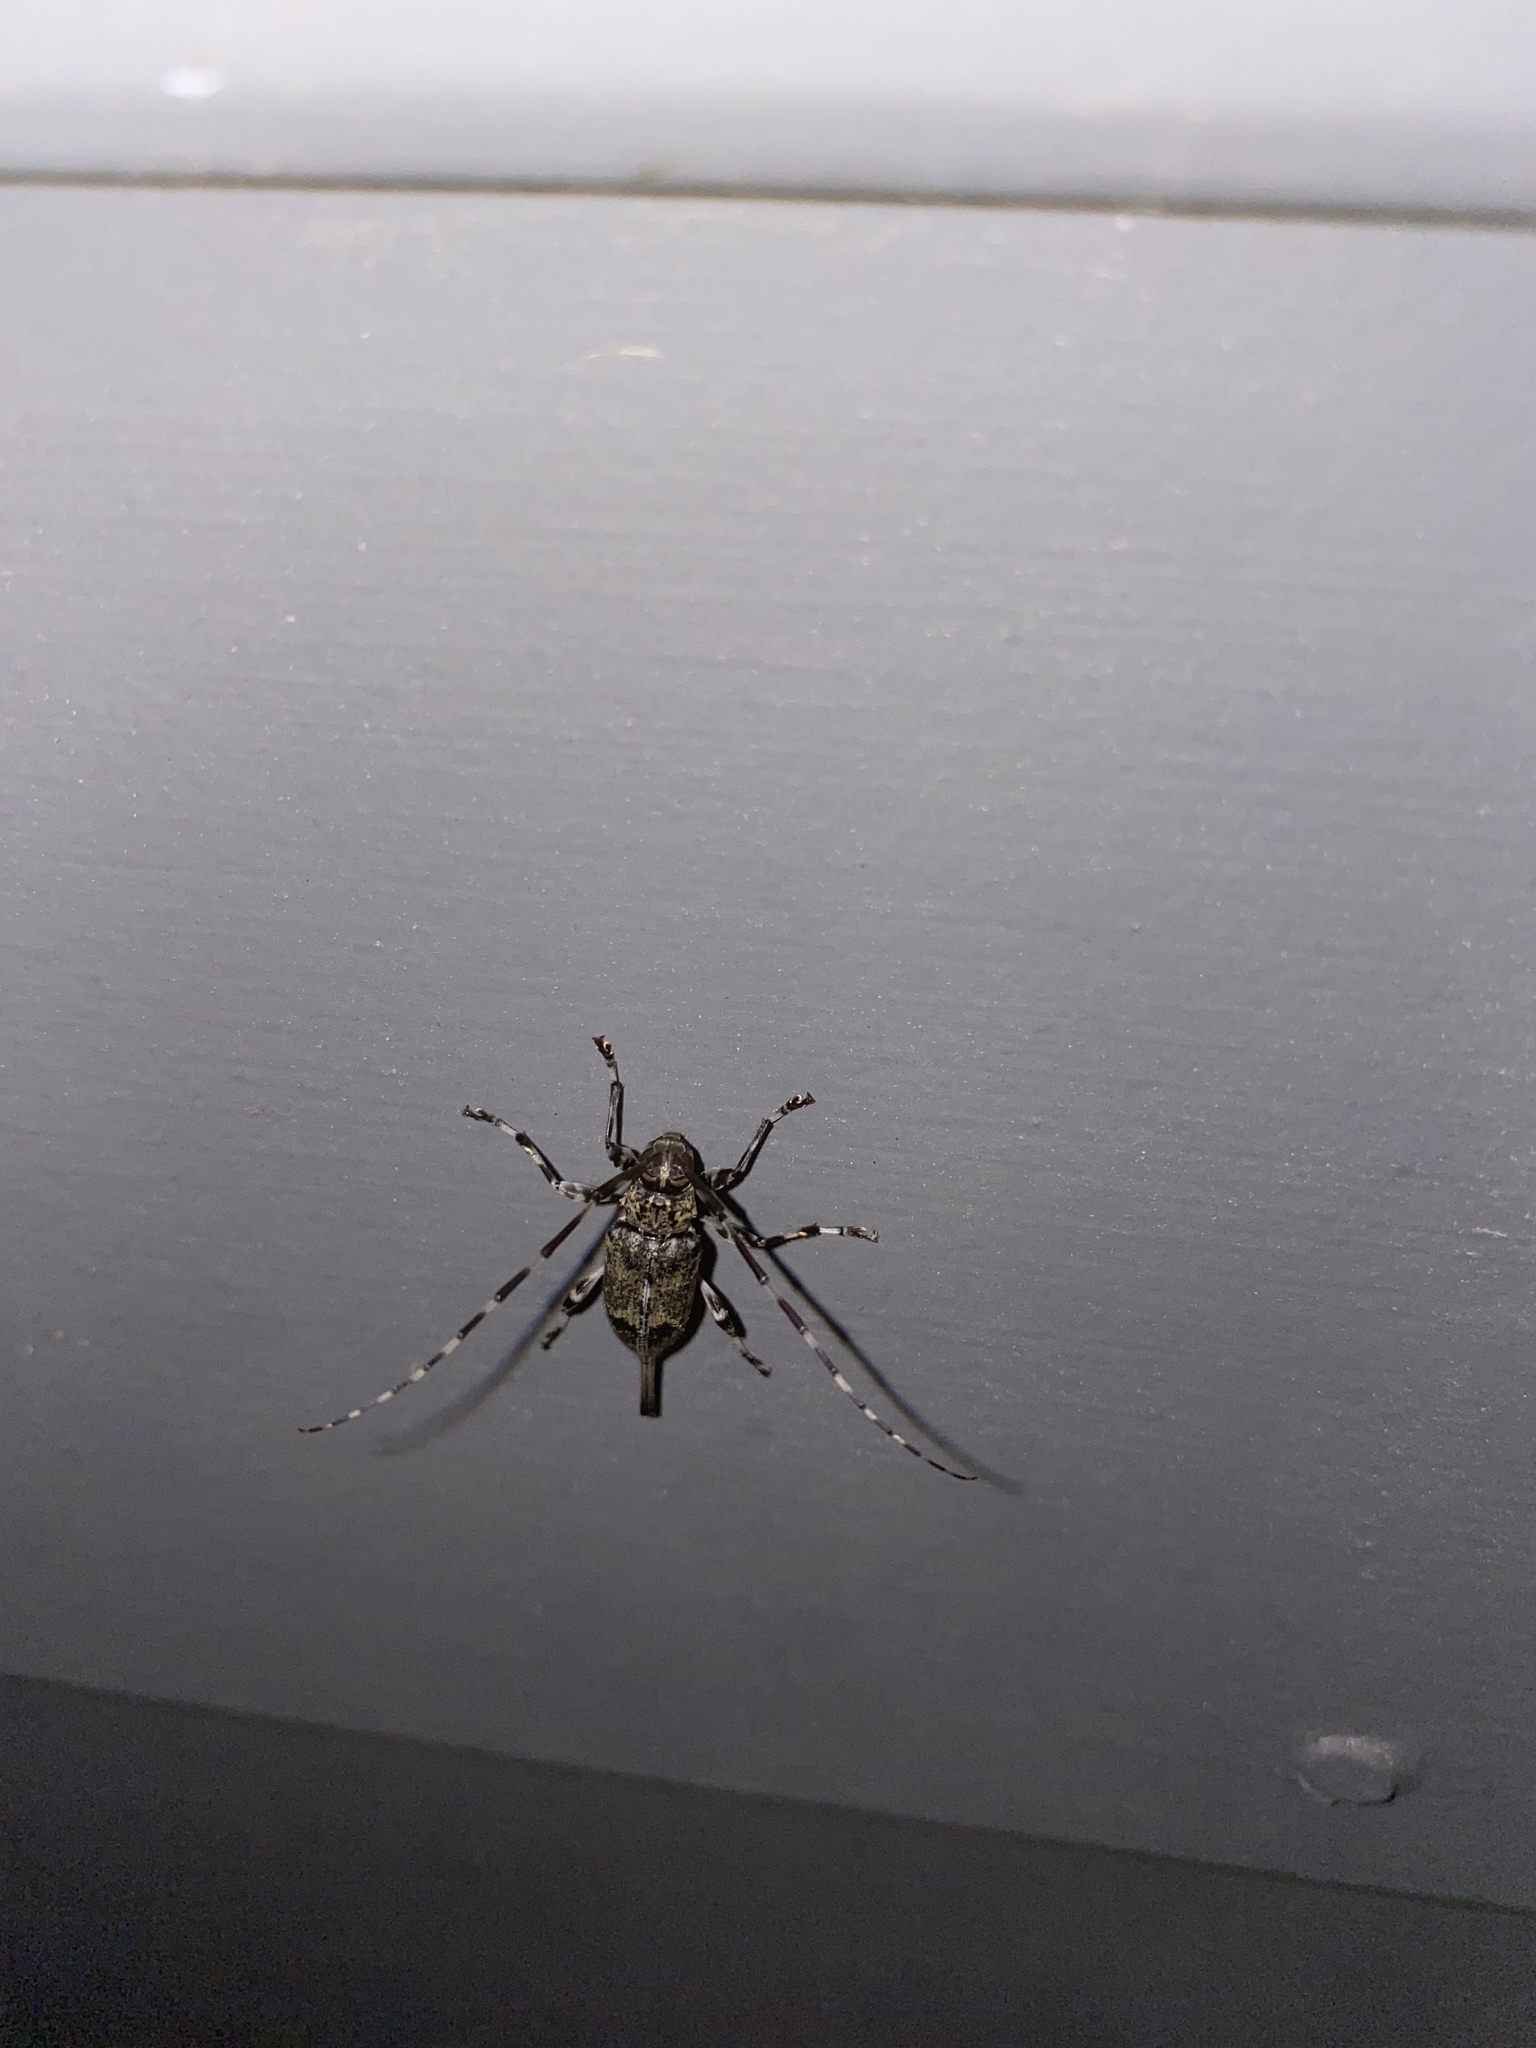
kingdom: Animalia
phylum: Arthropoda
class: Insecta
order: Coleoptera
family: Cerambycidae
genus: Graphisurus
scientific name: Graphisurus despectus
